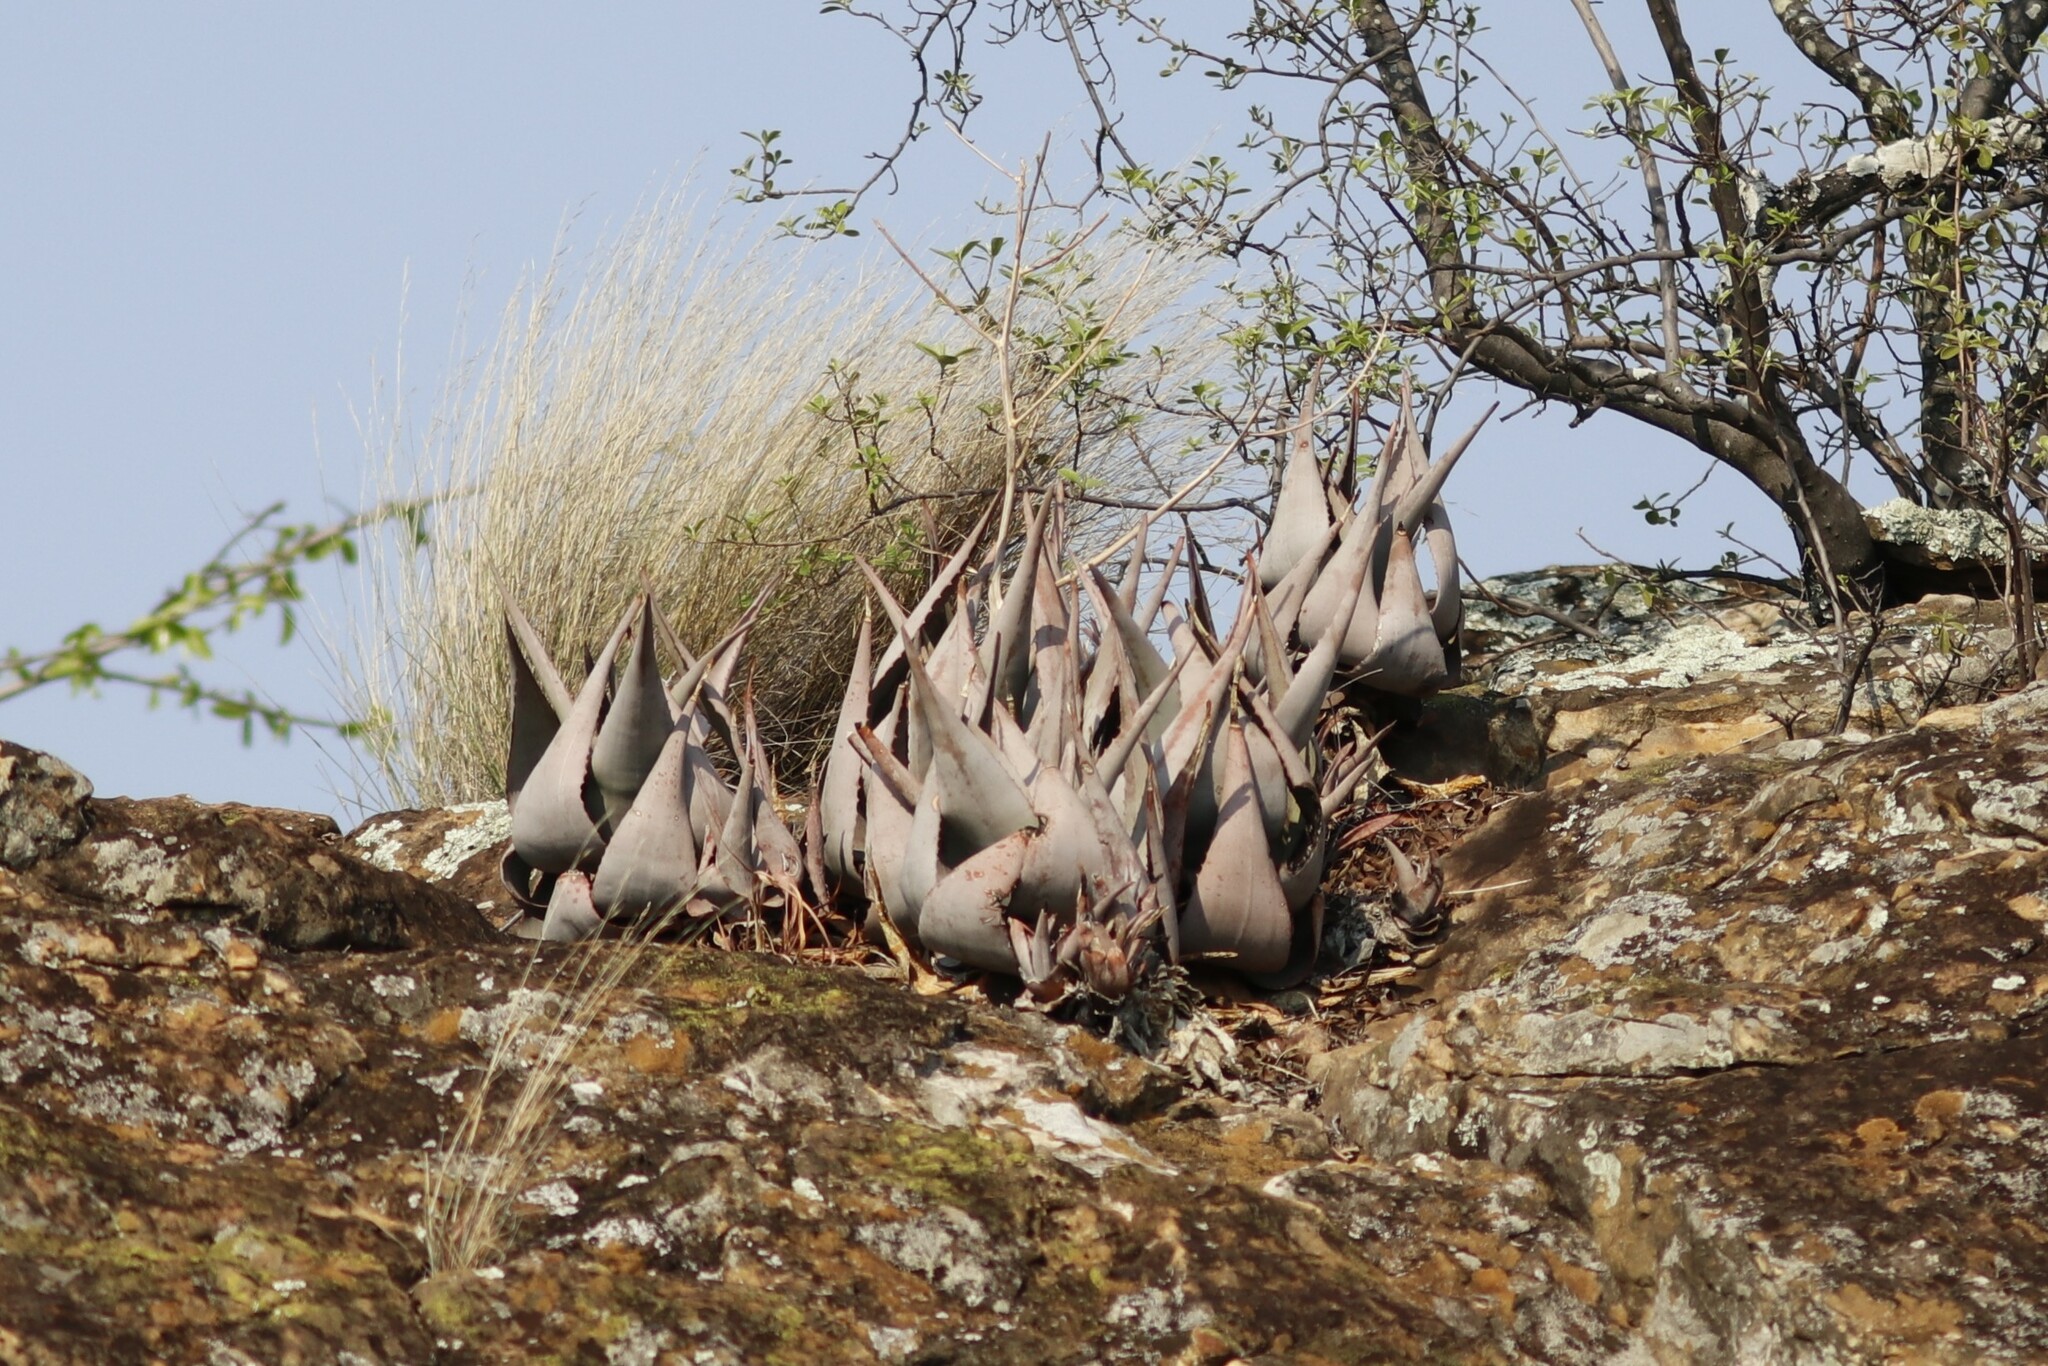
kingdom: Plantae
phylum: Tracheophyta
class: Liliopsida
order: Asparagales
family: Asphodelaceae
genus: Aloe
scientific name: Aloe chabaudii
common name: Chabaud's aloe
